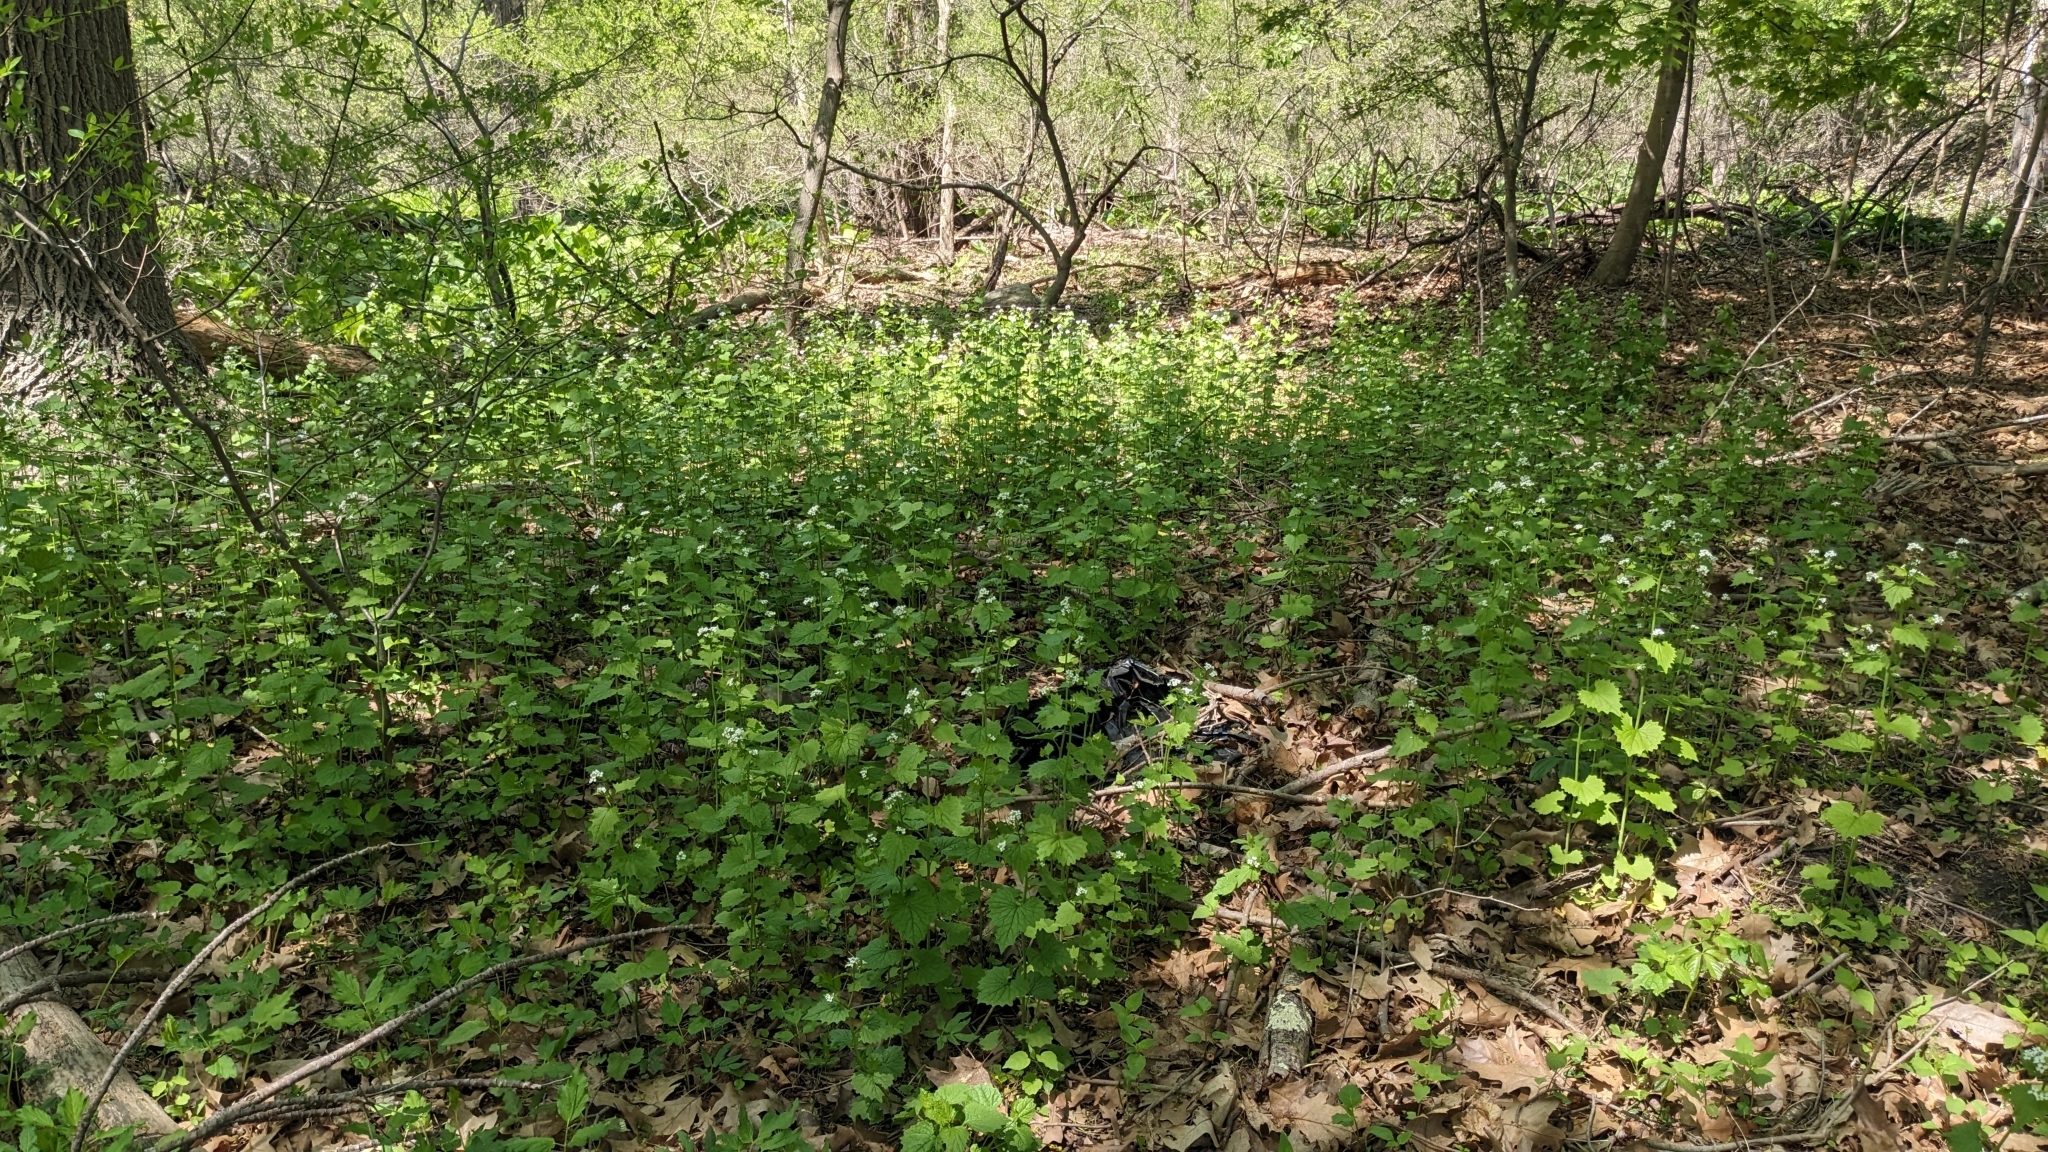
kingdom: Plantae
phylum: Tracheophyta
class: Magnoliopsida
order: Brassicales
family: Brassicaceae
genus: Alliaria
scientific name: Alliaria petiolata
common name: Garlic mustard
